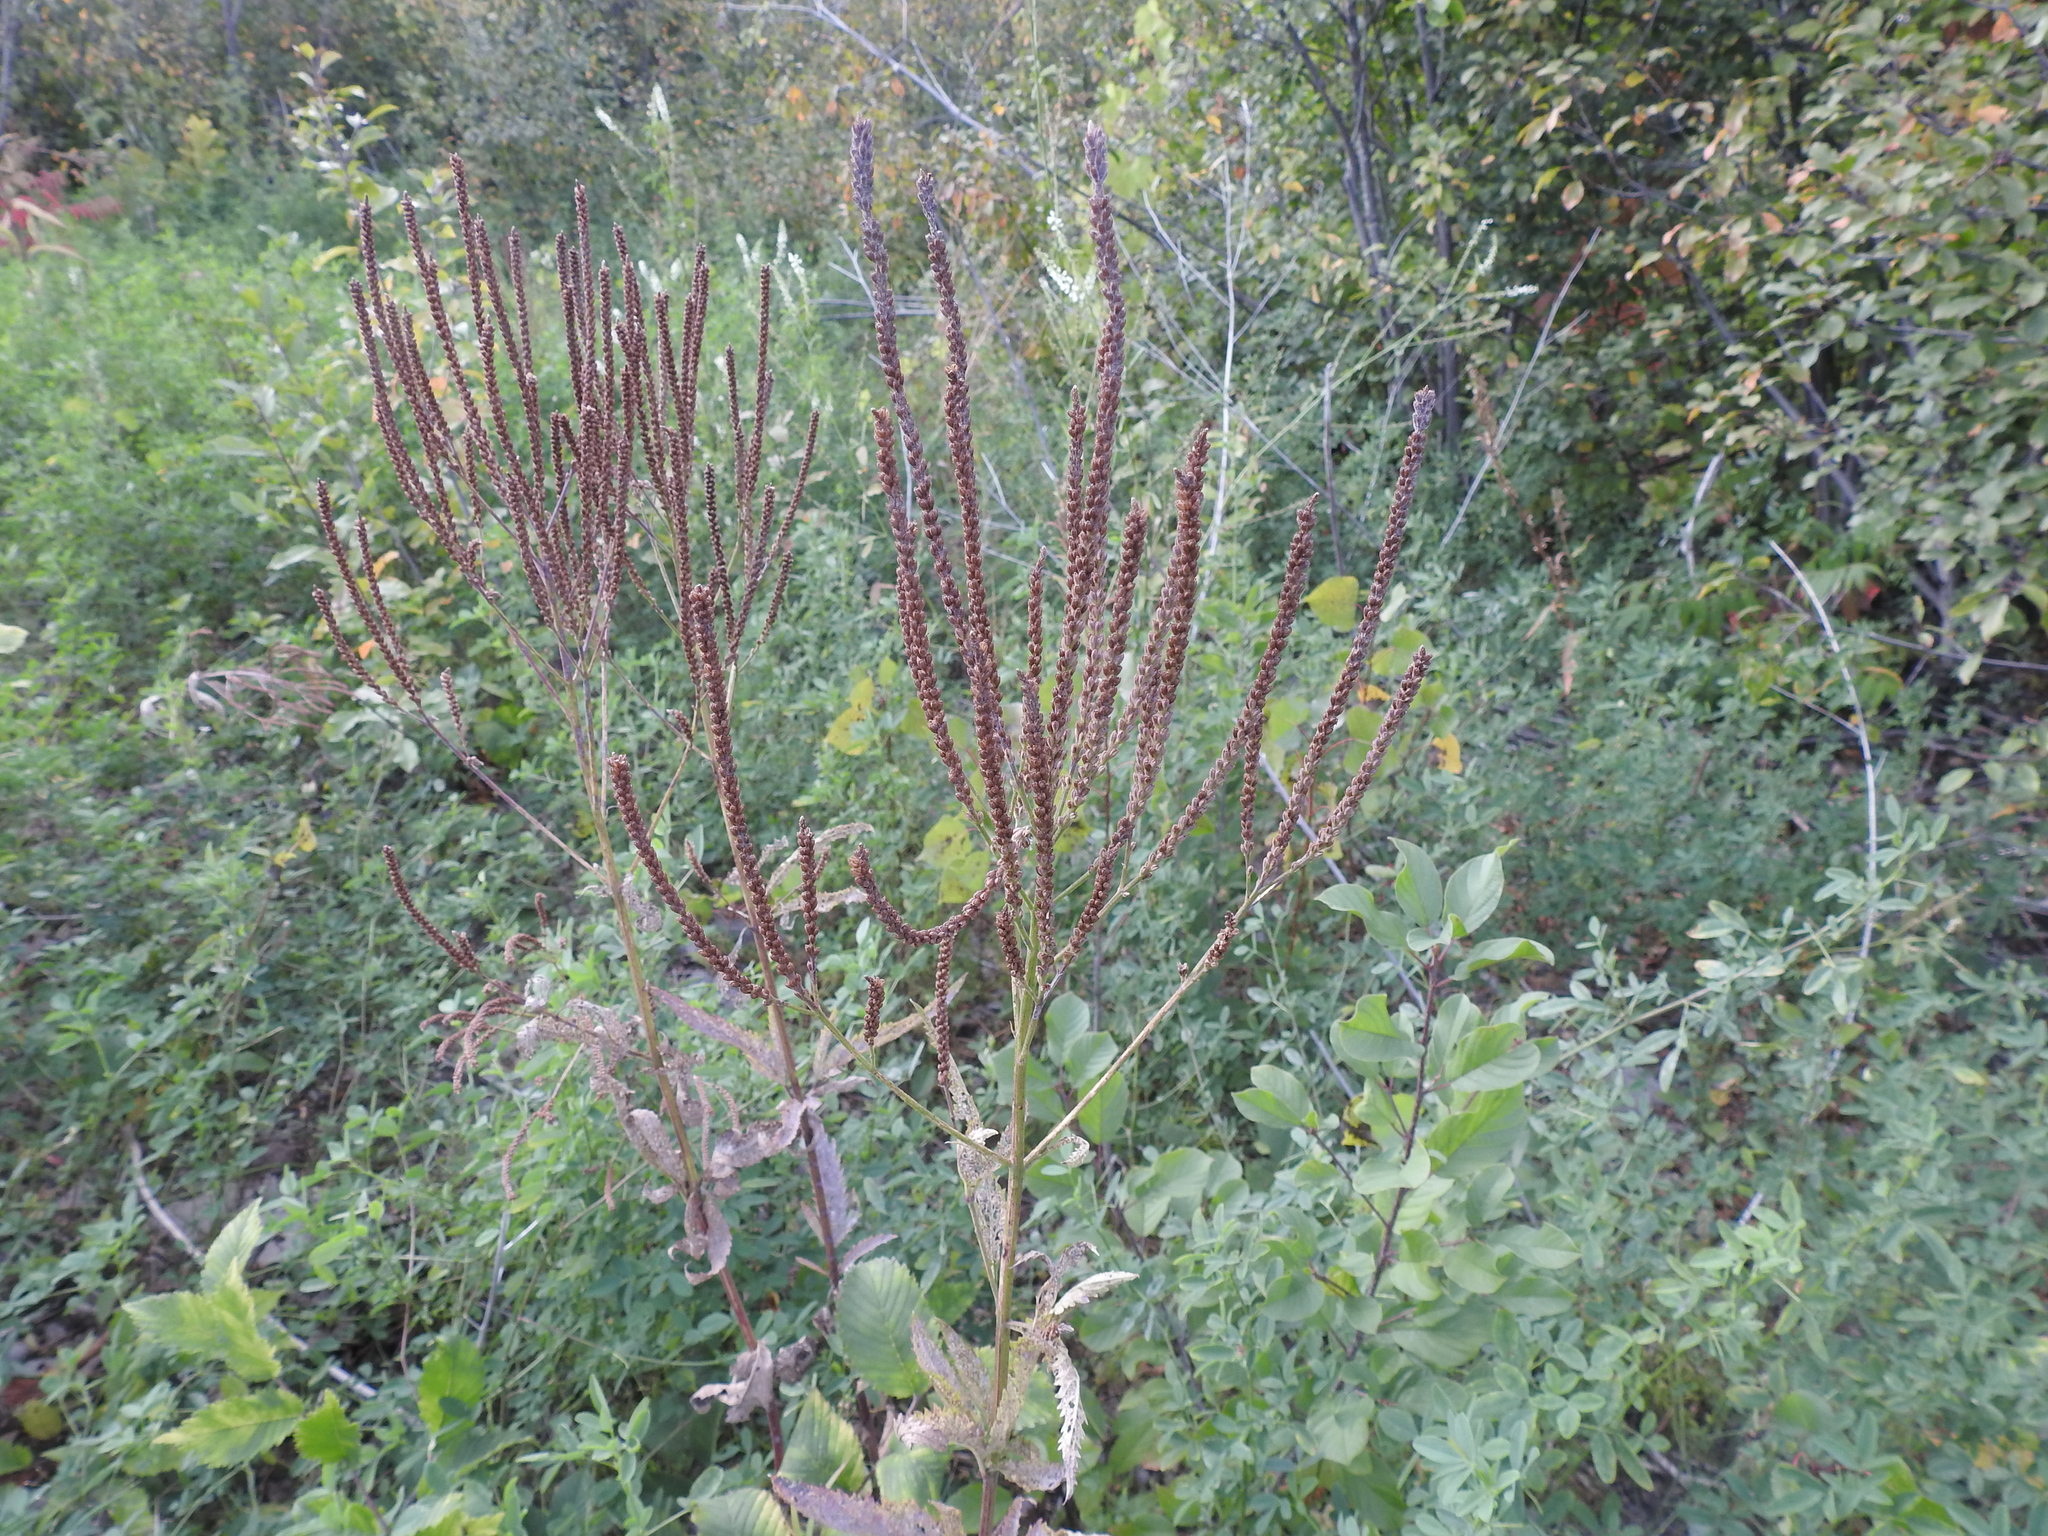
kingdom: Plantae
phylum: Tracheophyta
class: Magnoliopsida
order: Lamiales
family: Verbenaceae
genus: Verbena
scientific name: Verbena hastata
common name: American blue vervain
